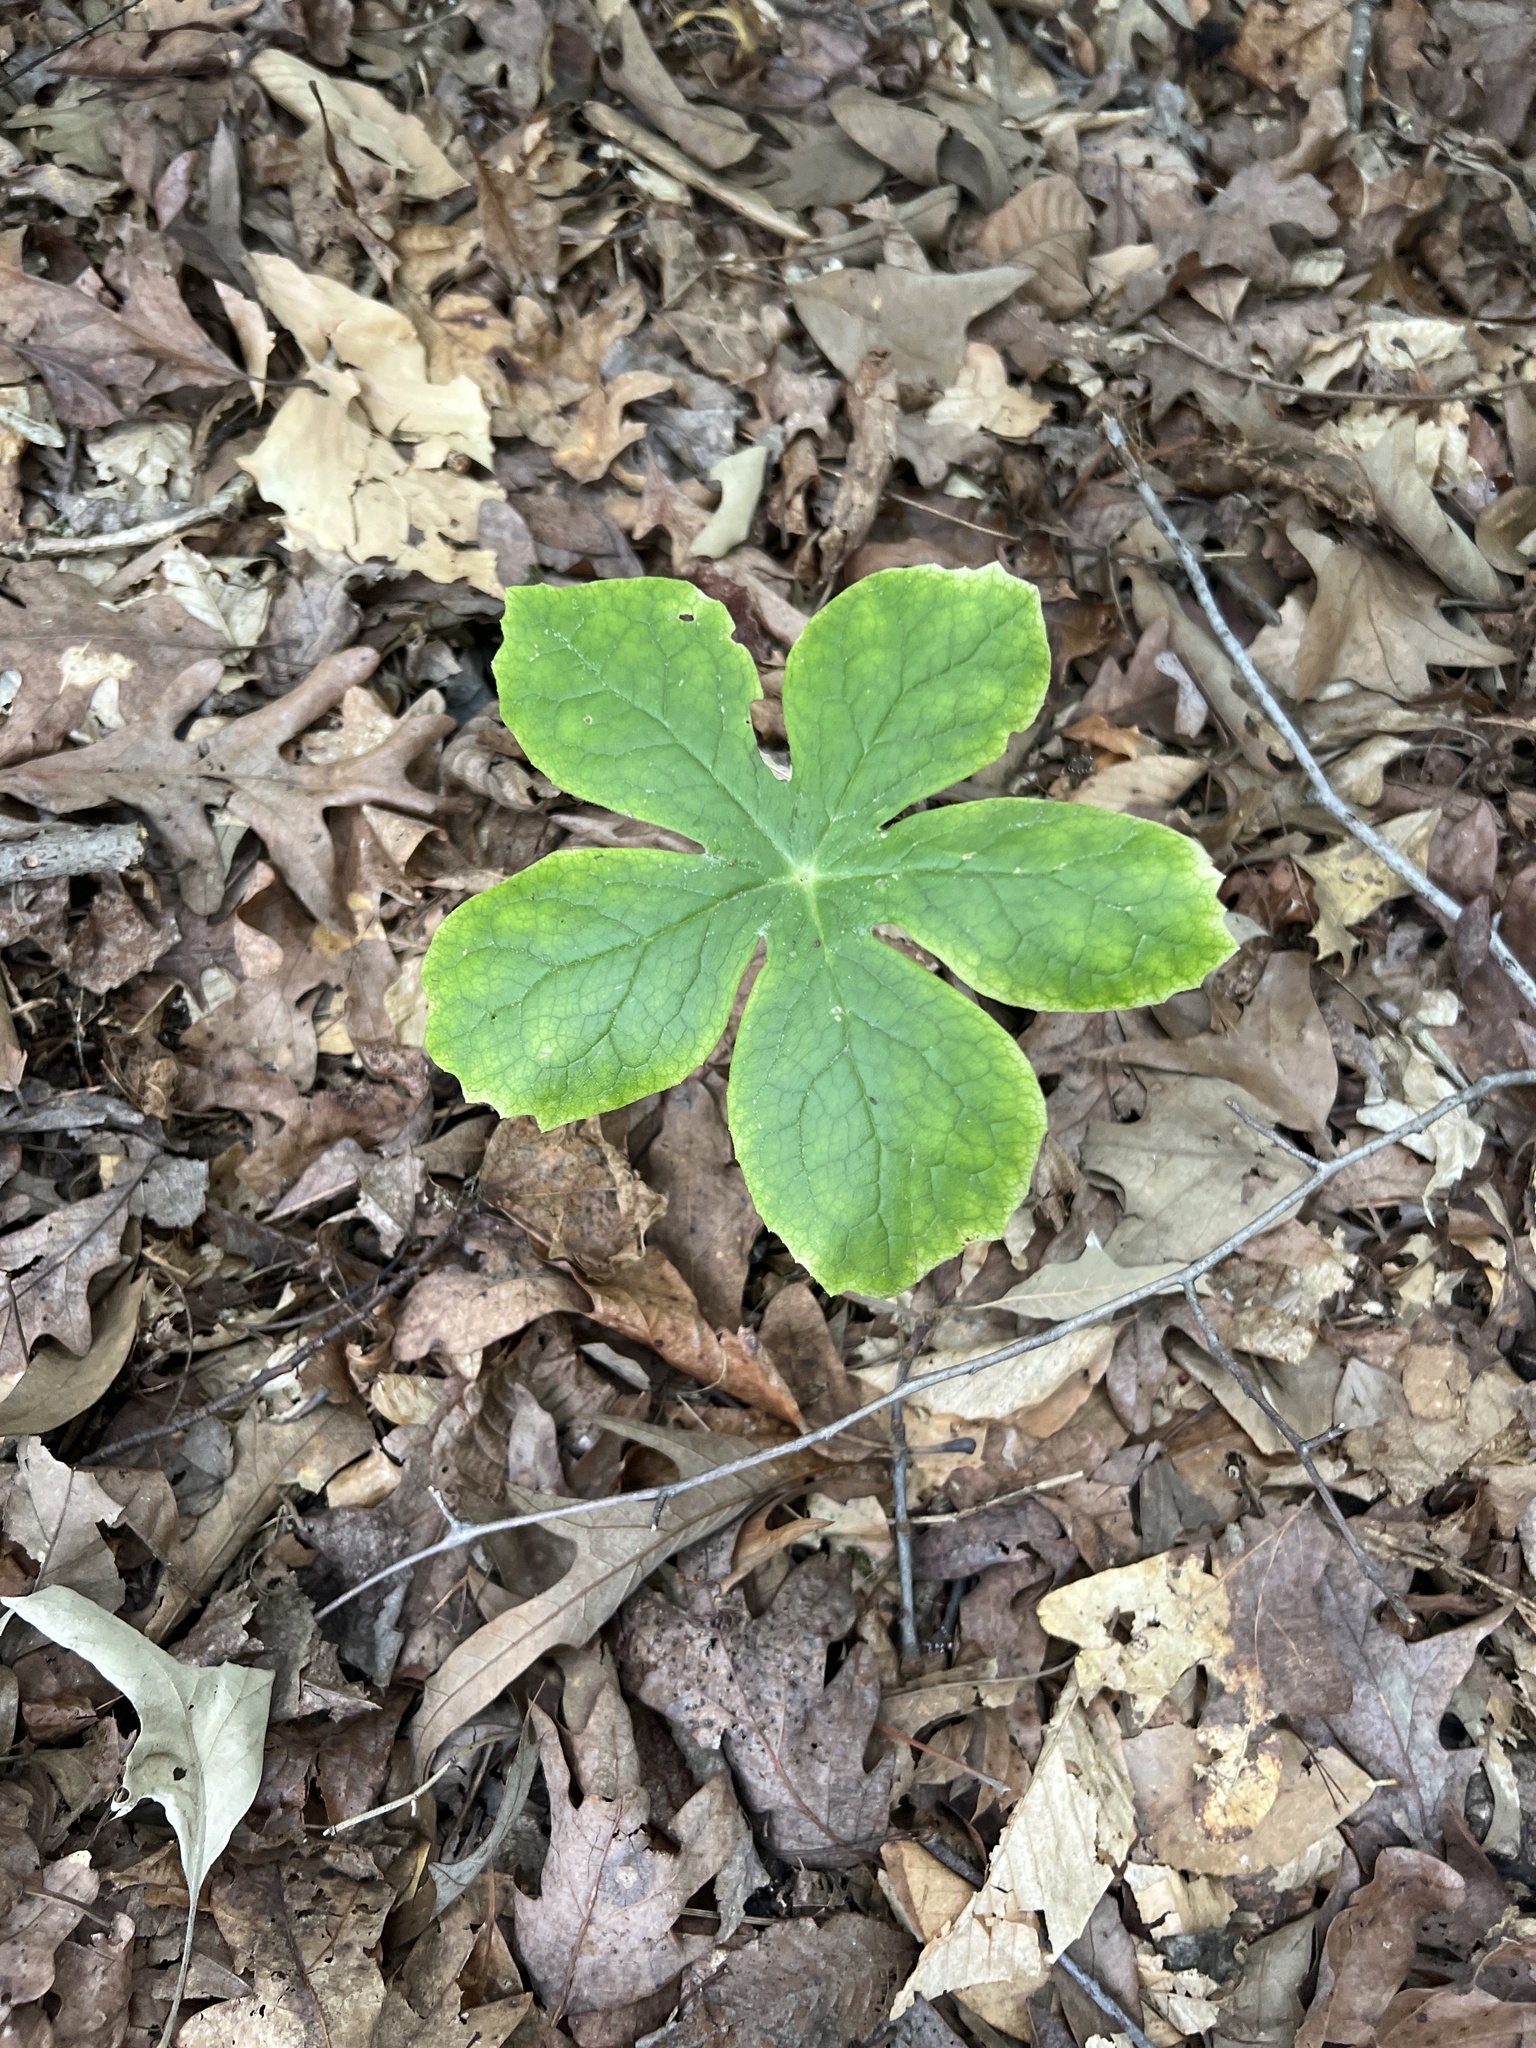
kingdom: Plantae
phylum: Tracheophyta
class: Magnoliopsida
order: Ranunculales
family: Berberidaceae
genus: Podophyllum
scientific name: Podophyllum peltatum
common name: Wild mandrake
